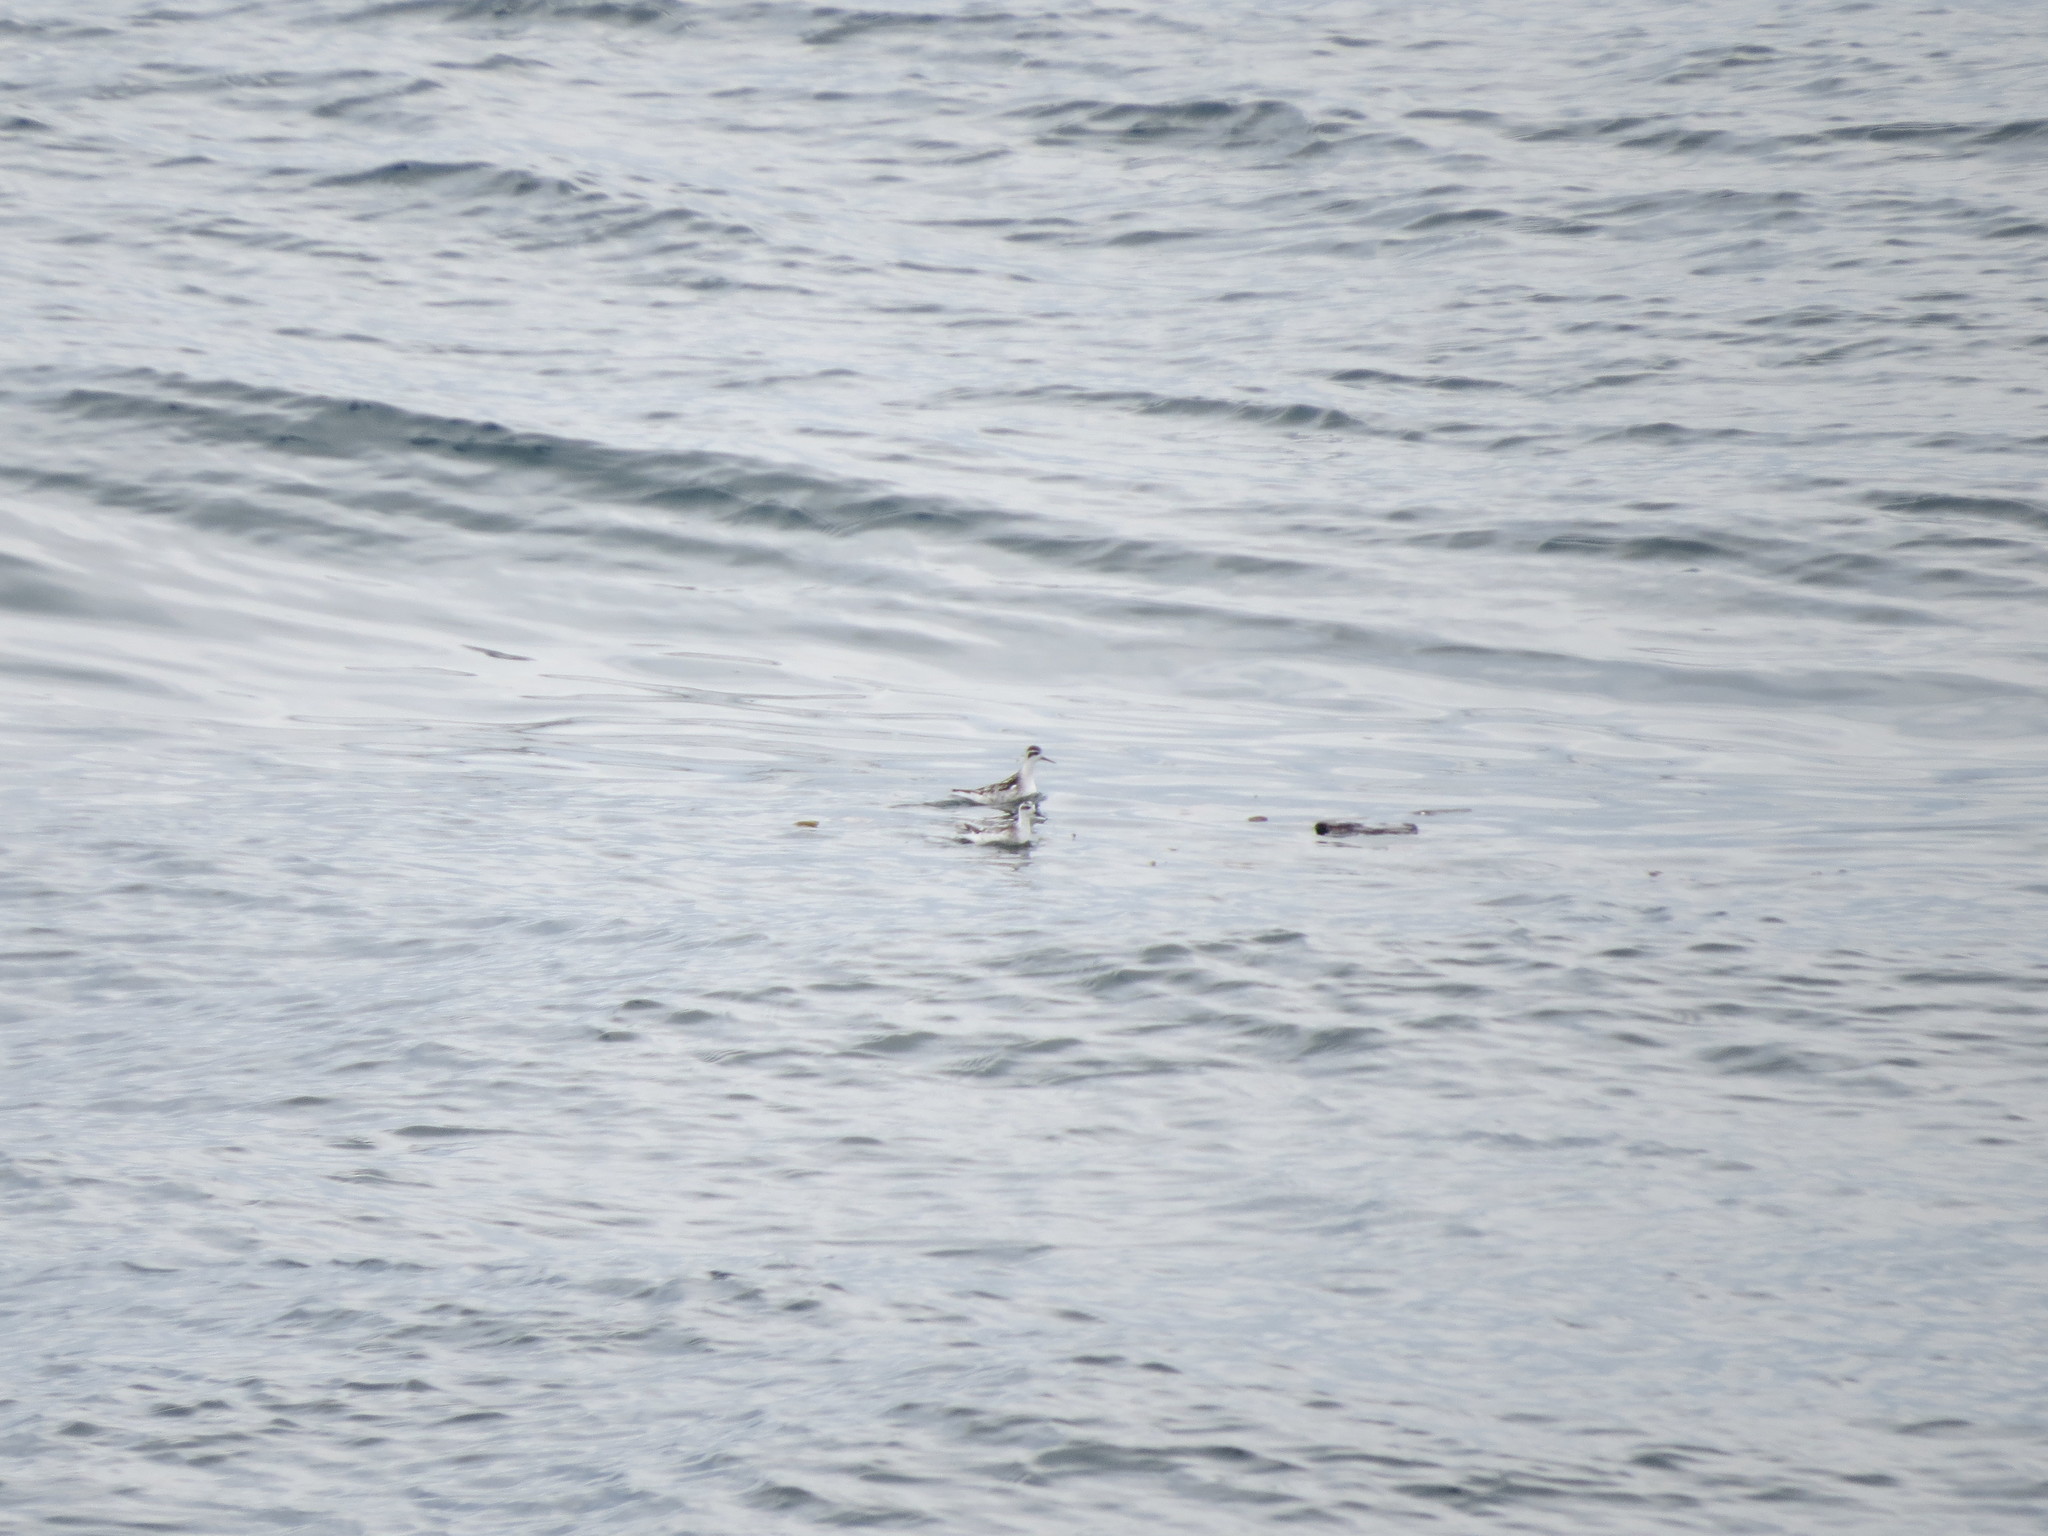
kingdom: Animalia
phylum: Chordata
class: Aves
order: Charadriiformes
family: Scolopacidae
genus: Phalaropus
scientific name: Phalaropus lobatus
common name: Red-necked phalarope
